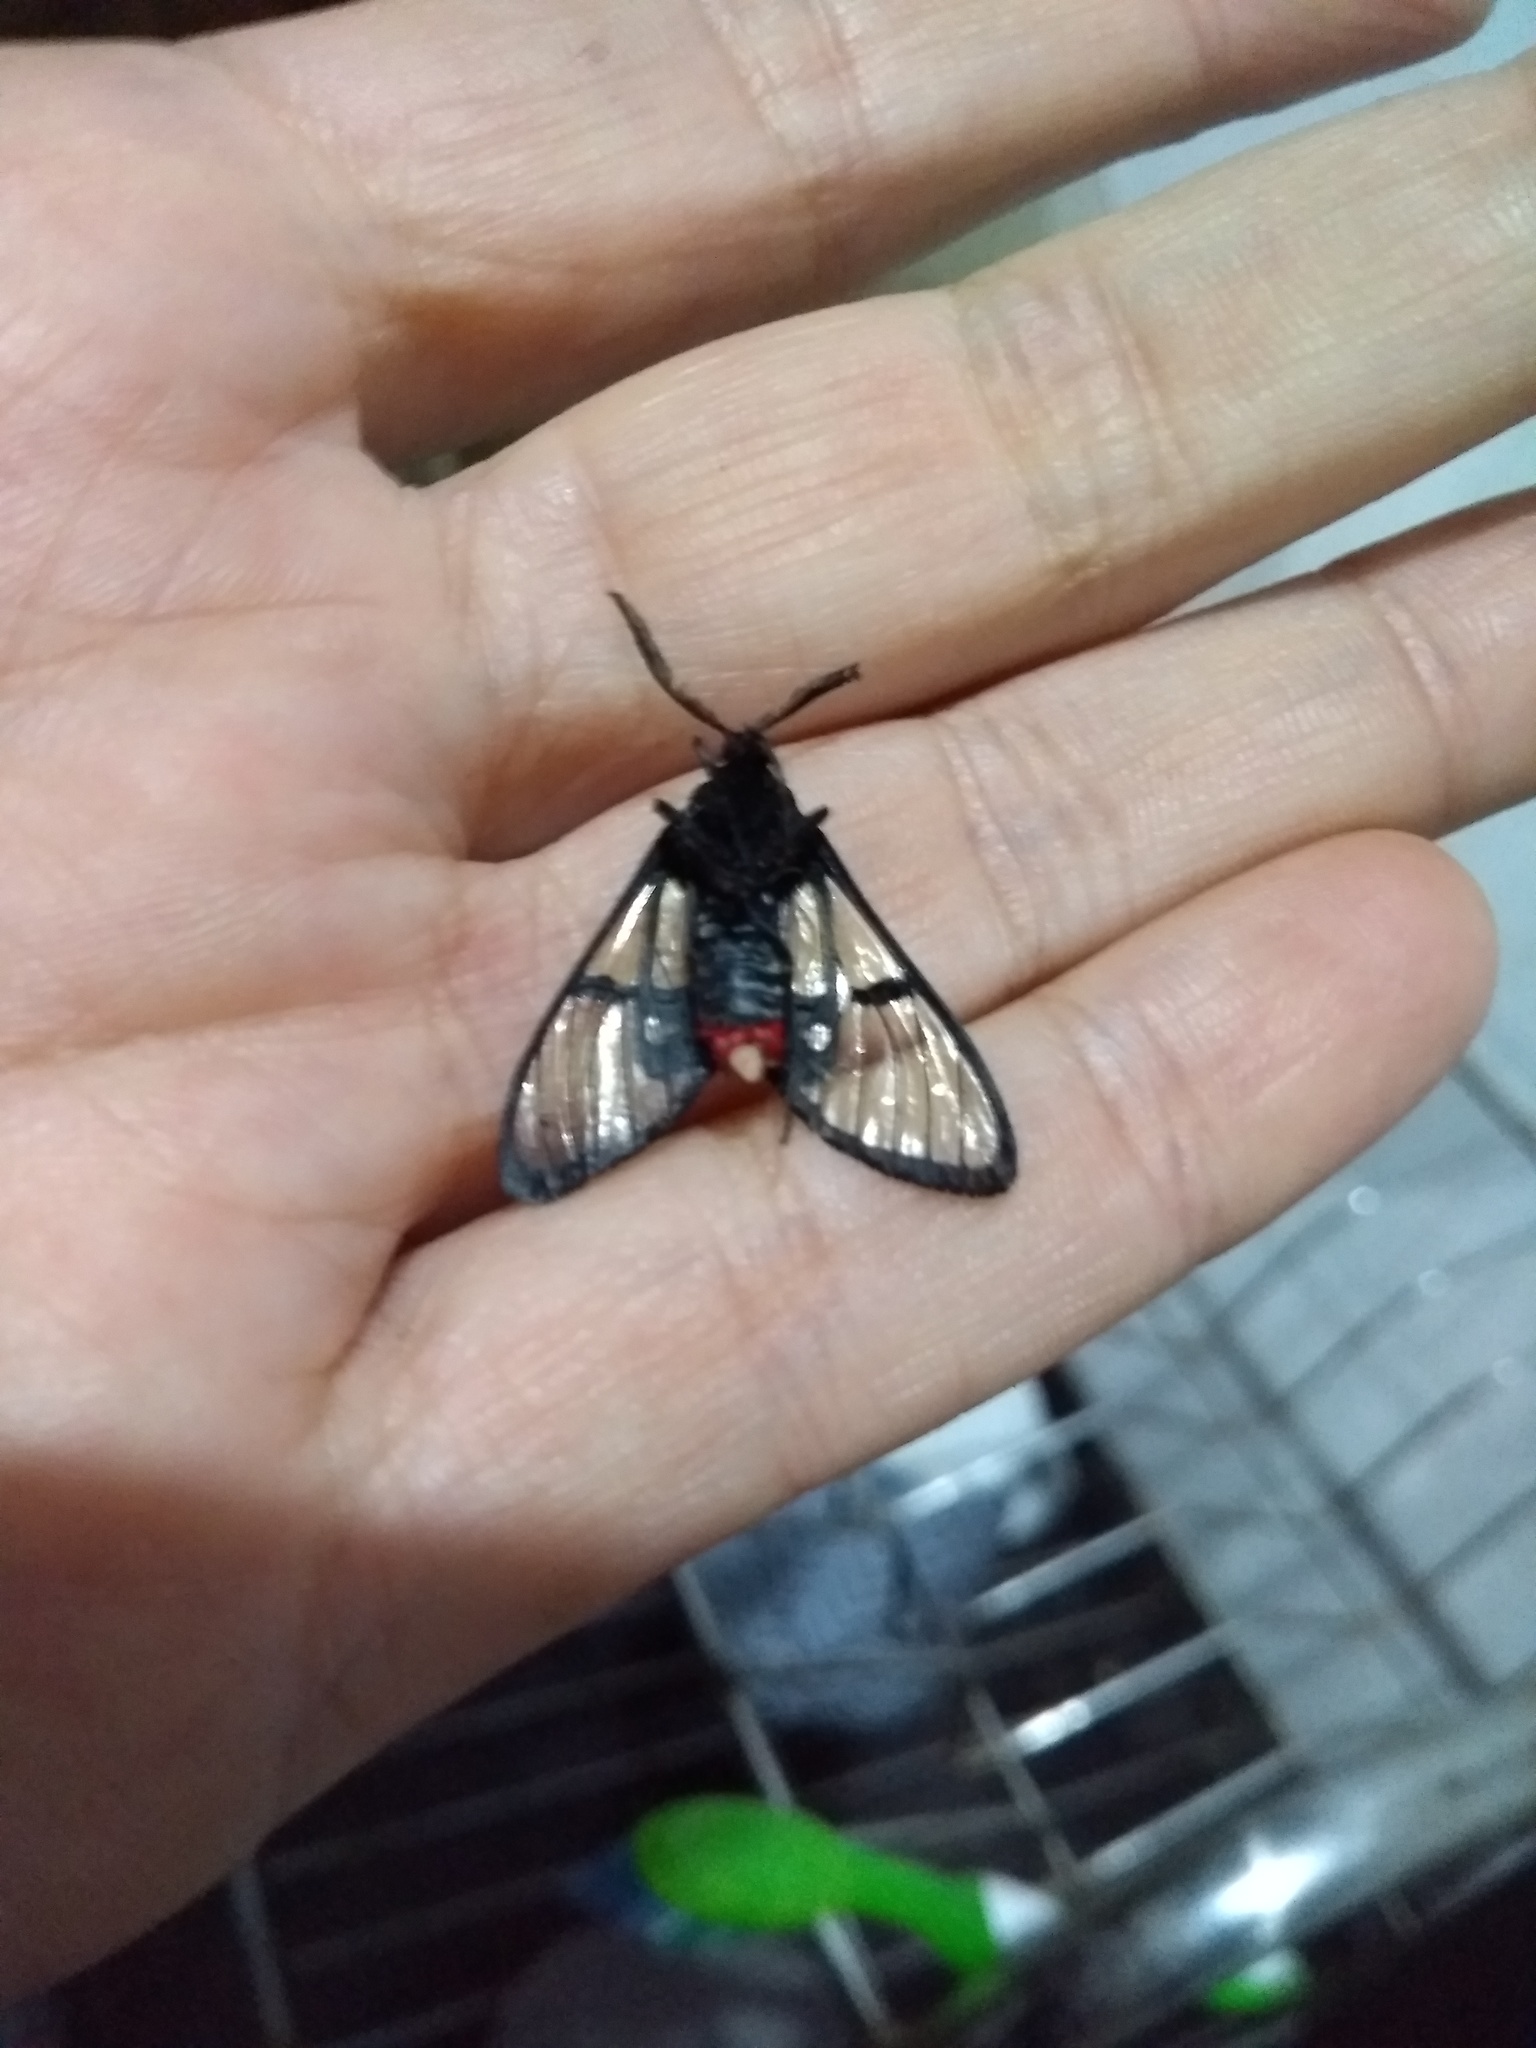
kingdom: Animalia
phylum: Arthropoda
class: Insecta
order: Lepidoptera
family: Erebidae
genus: Aethria
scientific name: Aethria melanobasis
